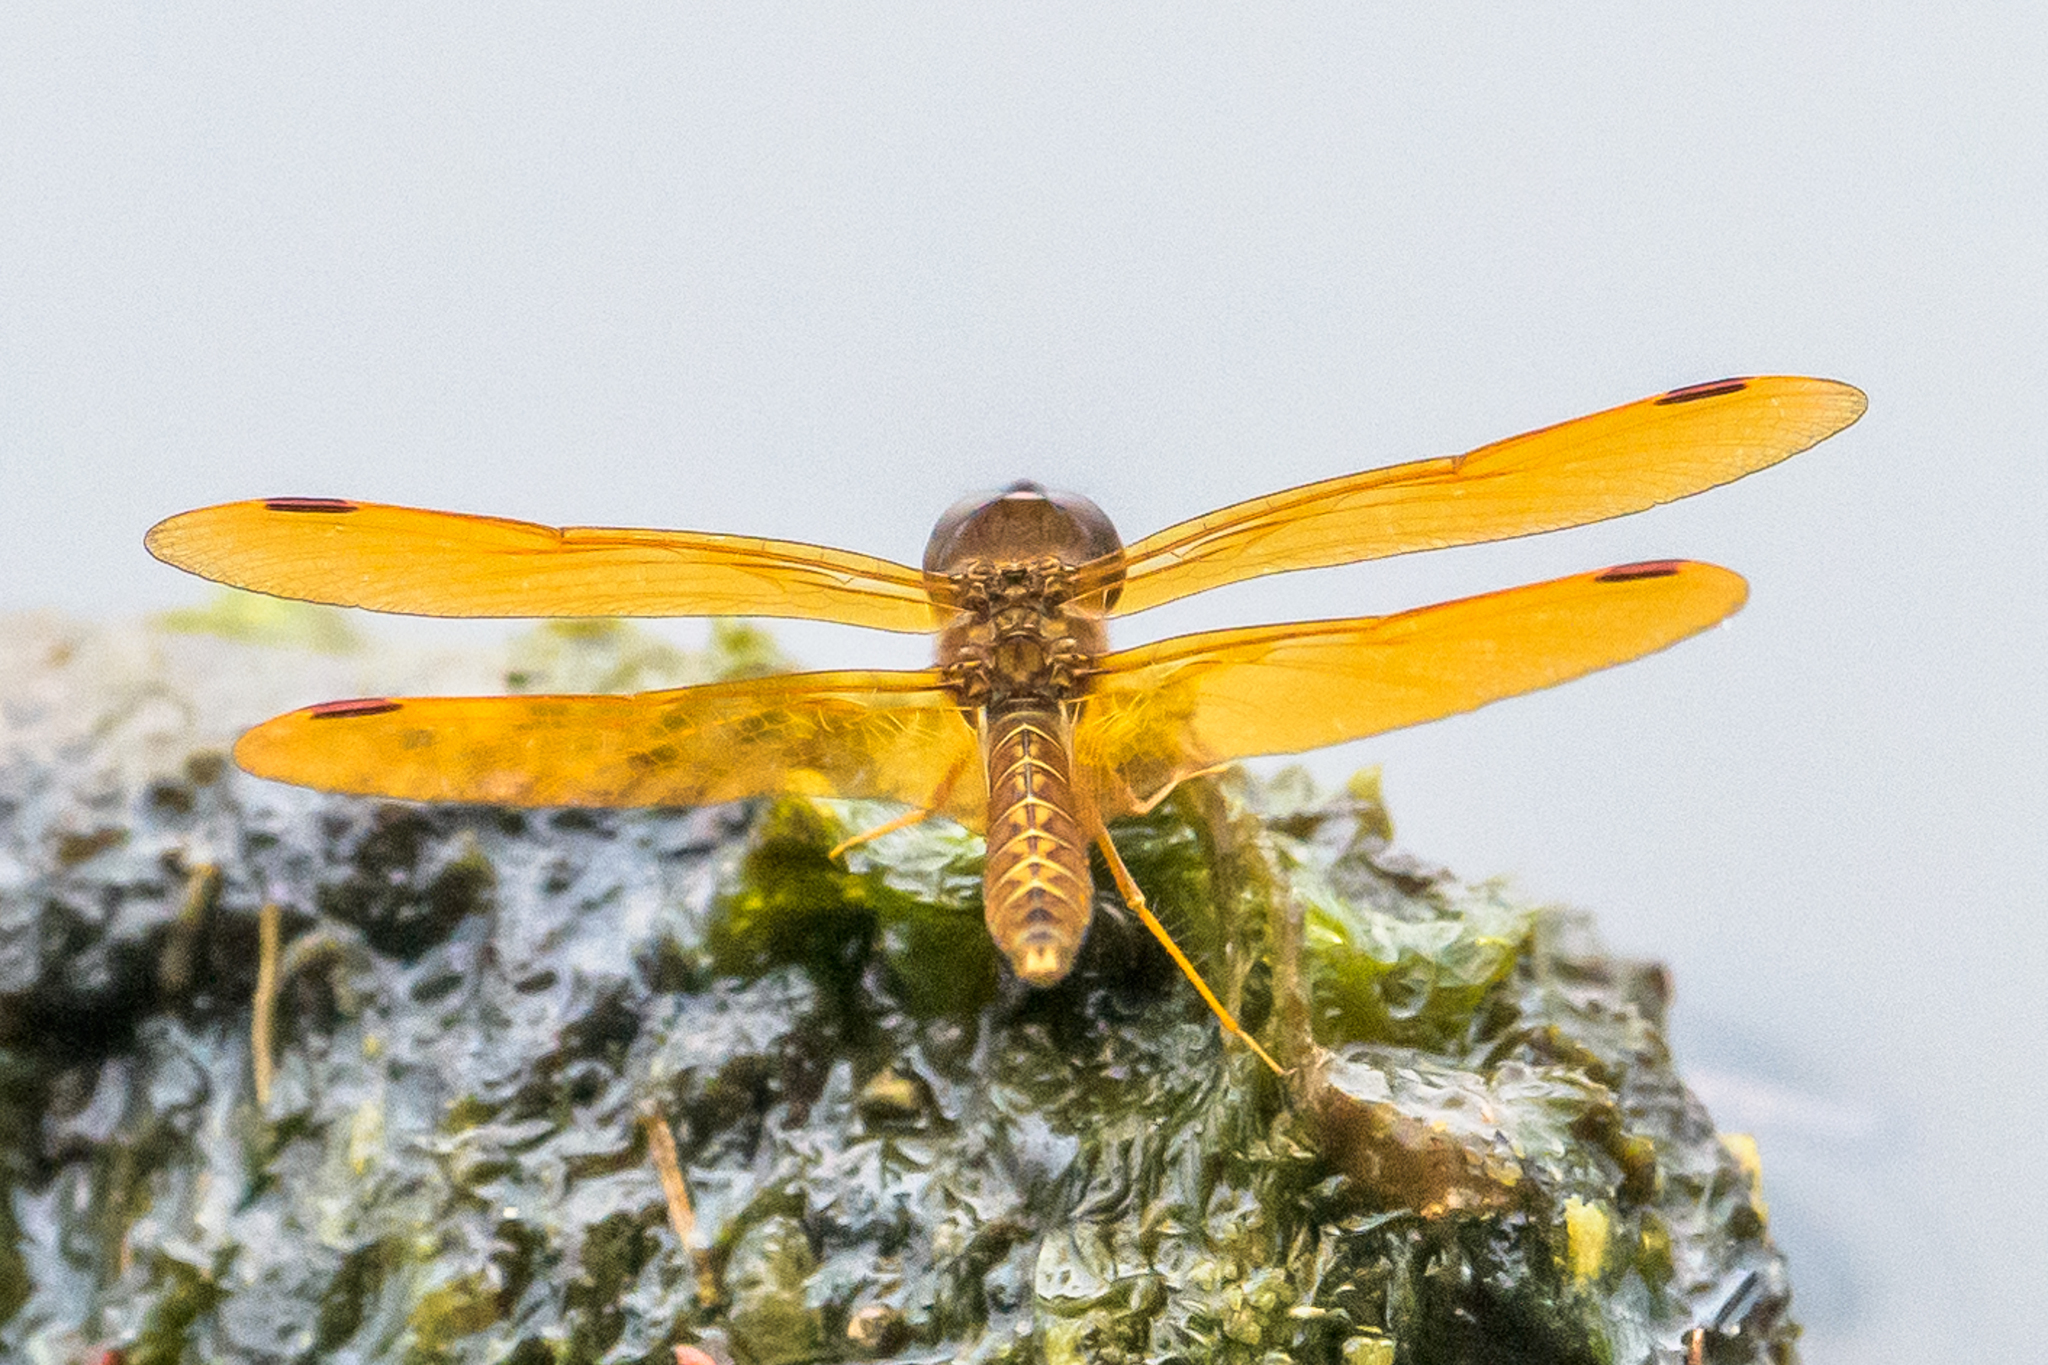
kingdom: Animalia
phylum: Arthropoda
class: Insecta
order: Odonata
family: Libellulidae
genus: Perithemis
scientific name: Perithemis tenera
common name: Eastern amberwing
